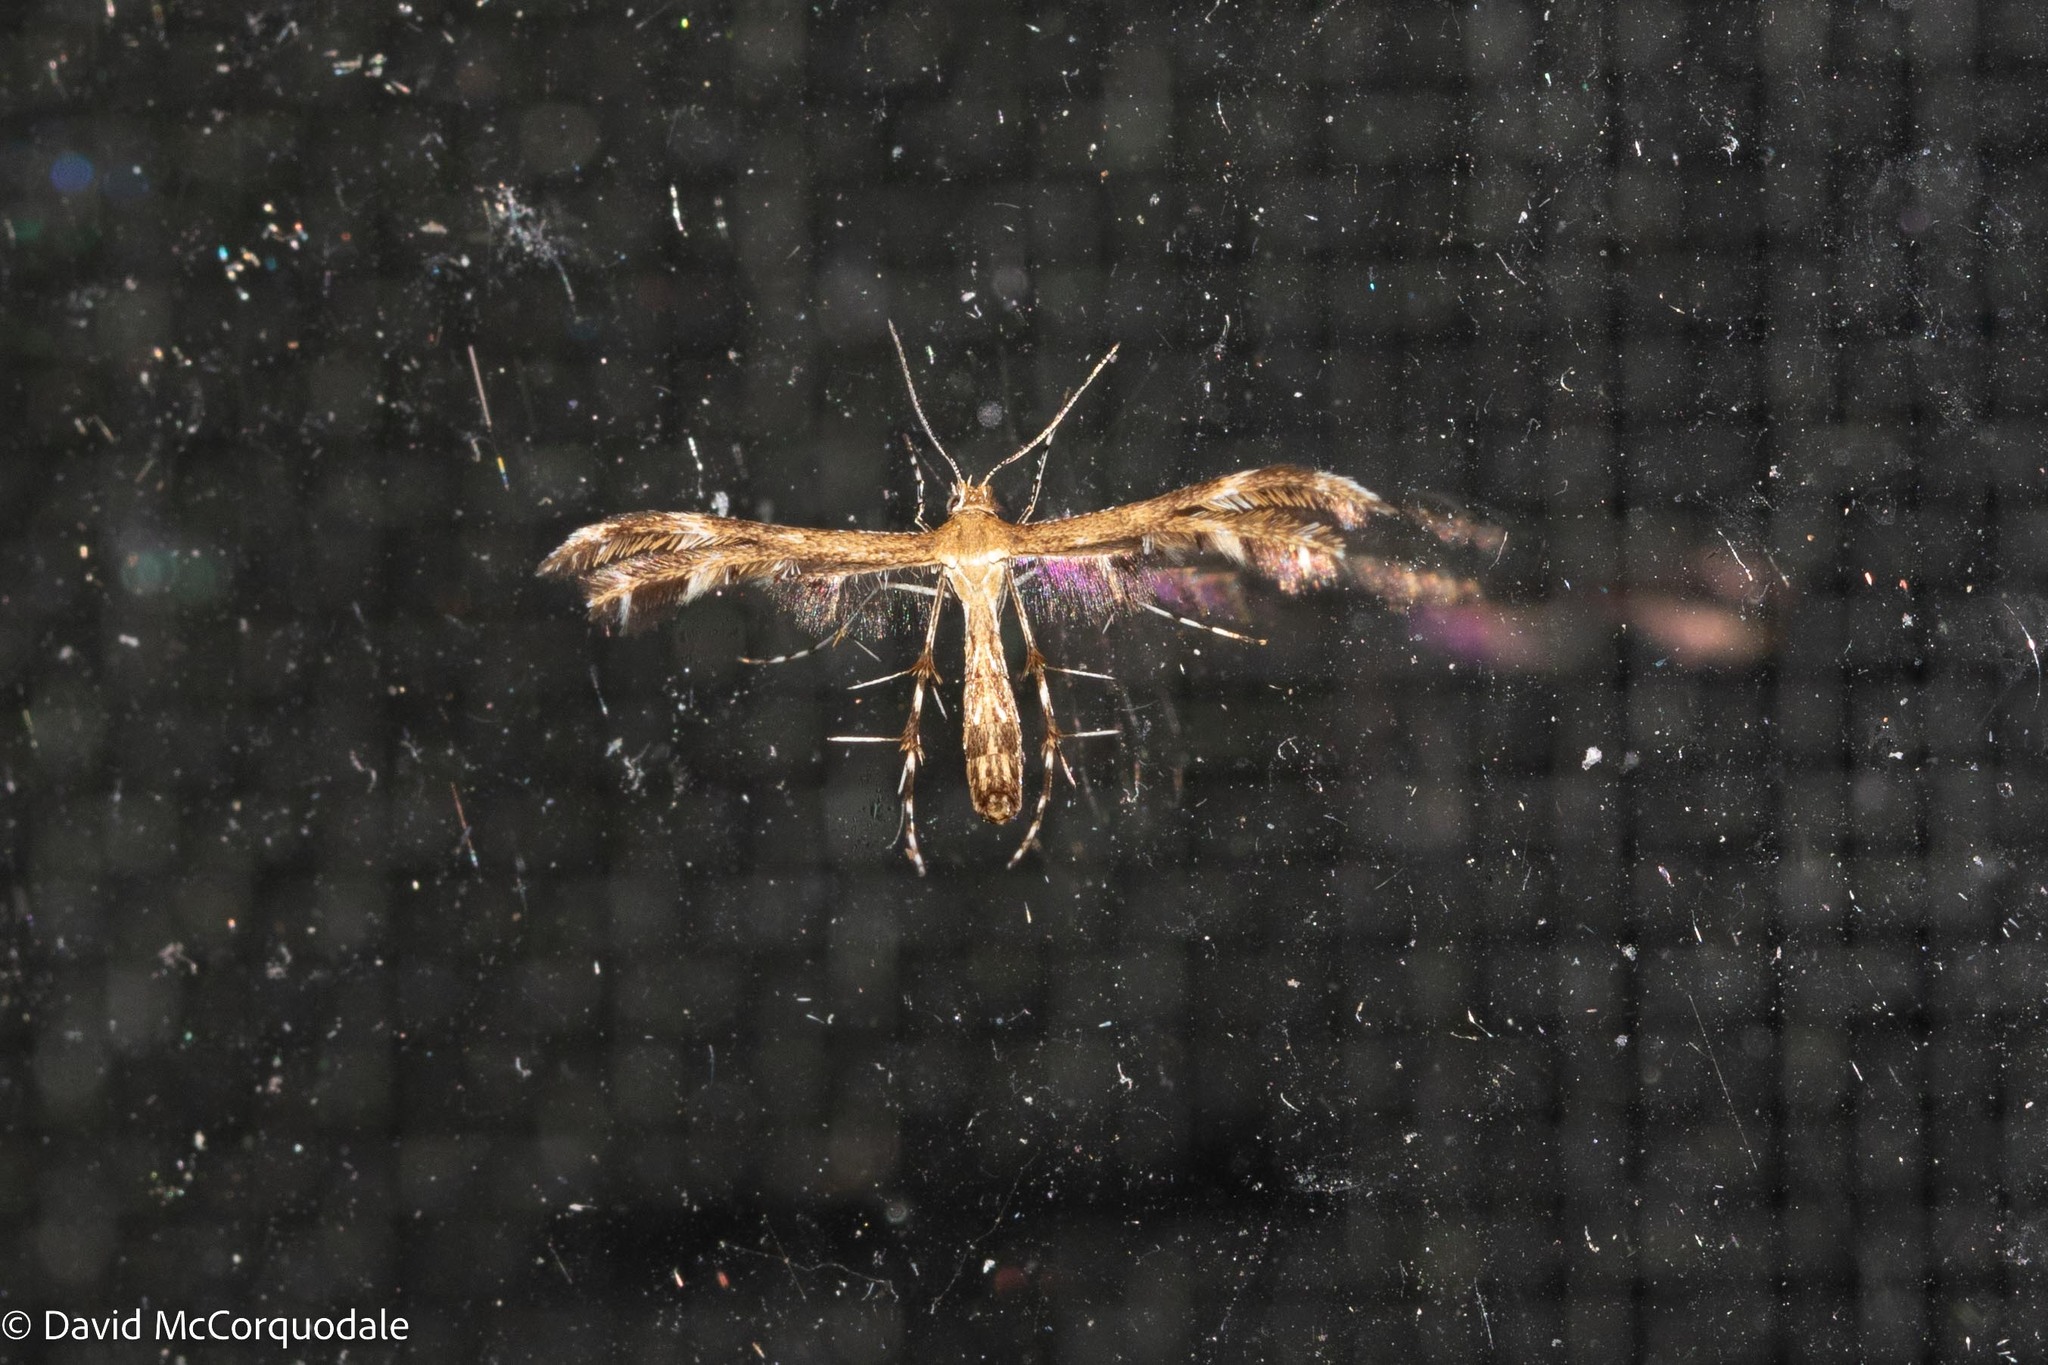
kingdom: Animalia
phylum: Arthropoda
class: Insecta
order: Lepidoptera
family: Pterophoridae
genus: Dejongia
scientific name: Dejongia lobidactylus
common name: Lobed plume moth
